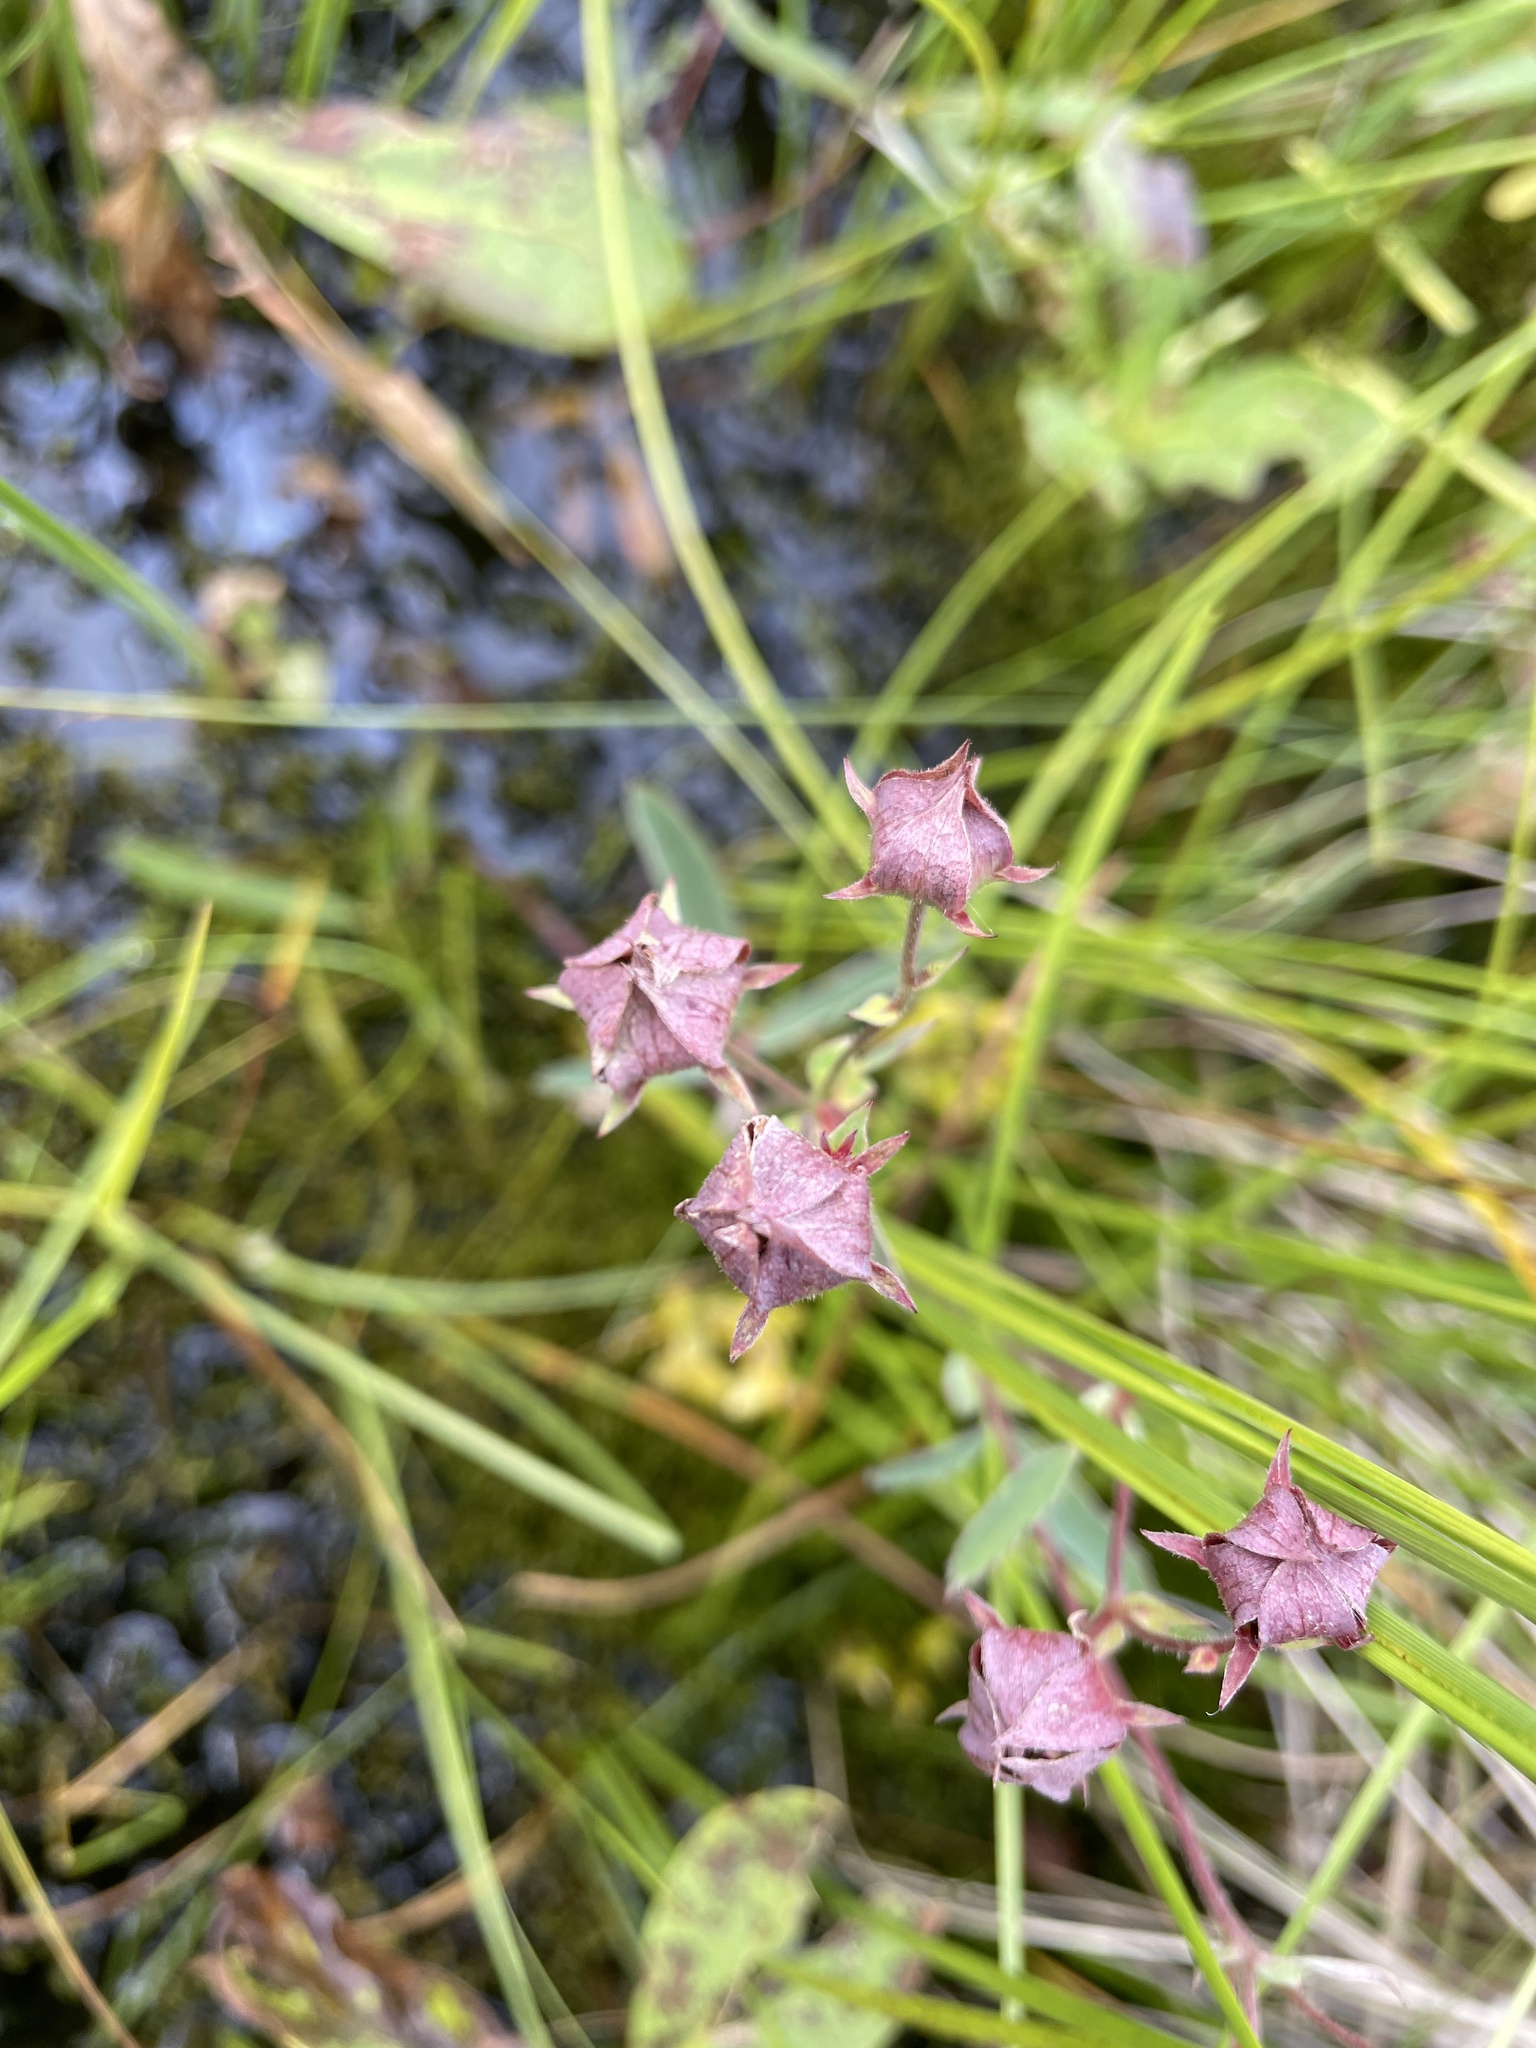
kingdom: Plantae
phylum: Tracheophyta
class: Magnoliopsida
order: Rosales
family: Rosaceae
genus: Comarum
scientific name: Comarum palustre
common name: Marsh cinquefoil
